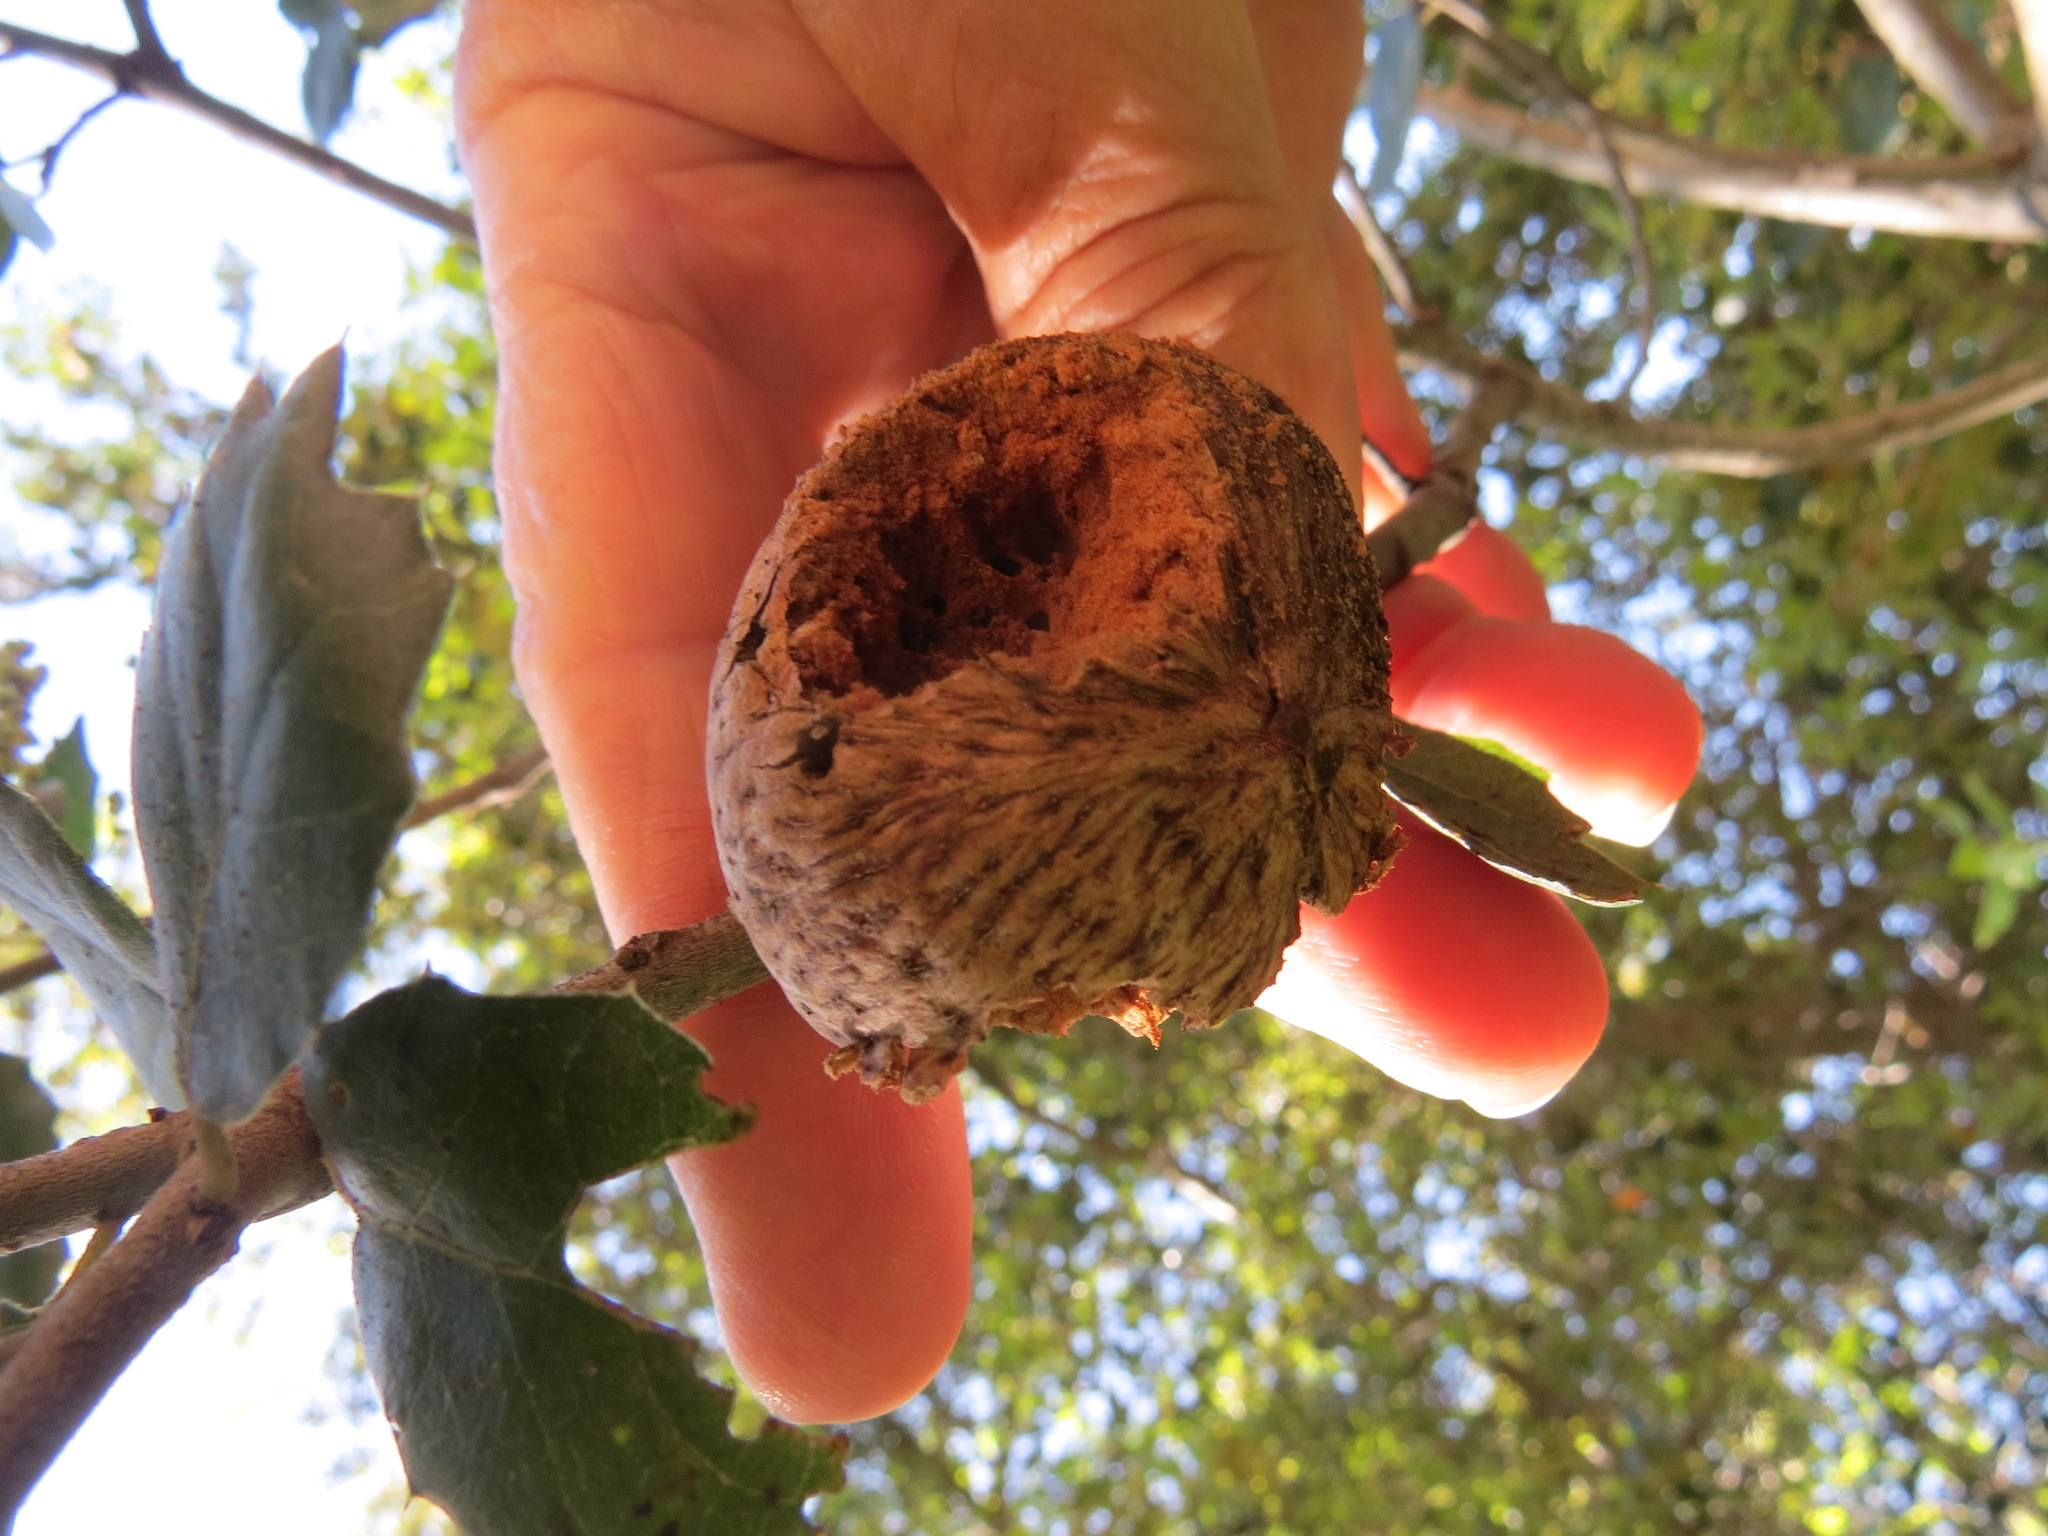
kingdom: Animalia
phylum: Arthropoda
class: Insecta
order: Hymenoptera
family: Cynipidae
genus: Amphibolips
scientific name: Amphibolips quercuspomiformis
